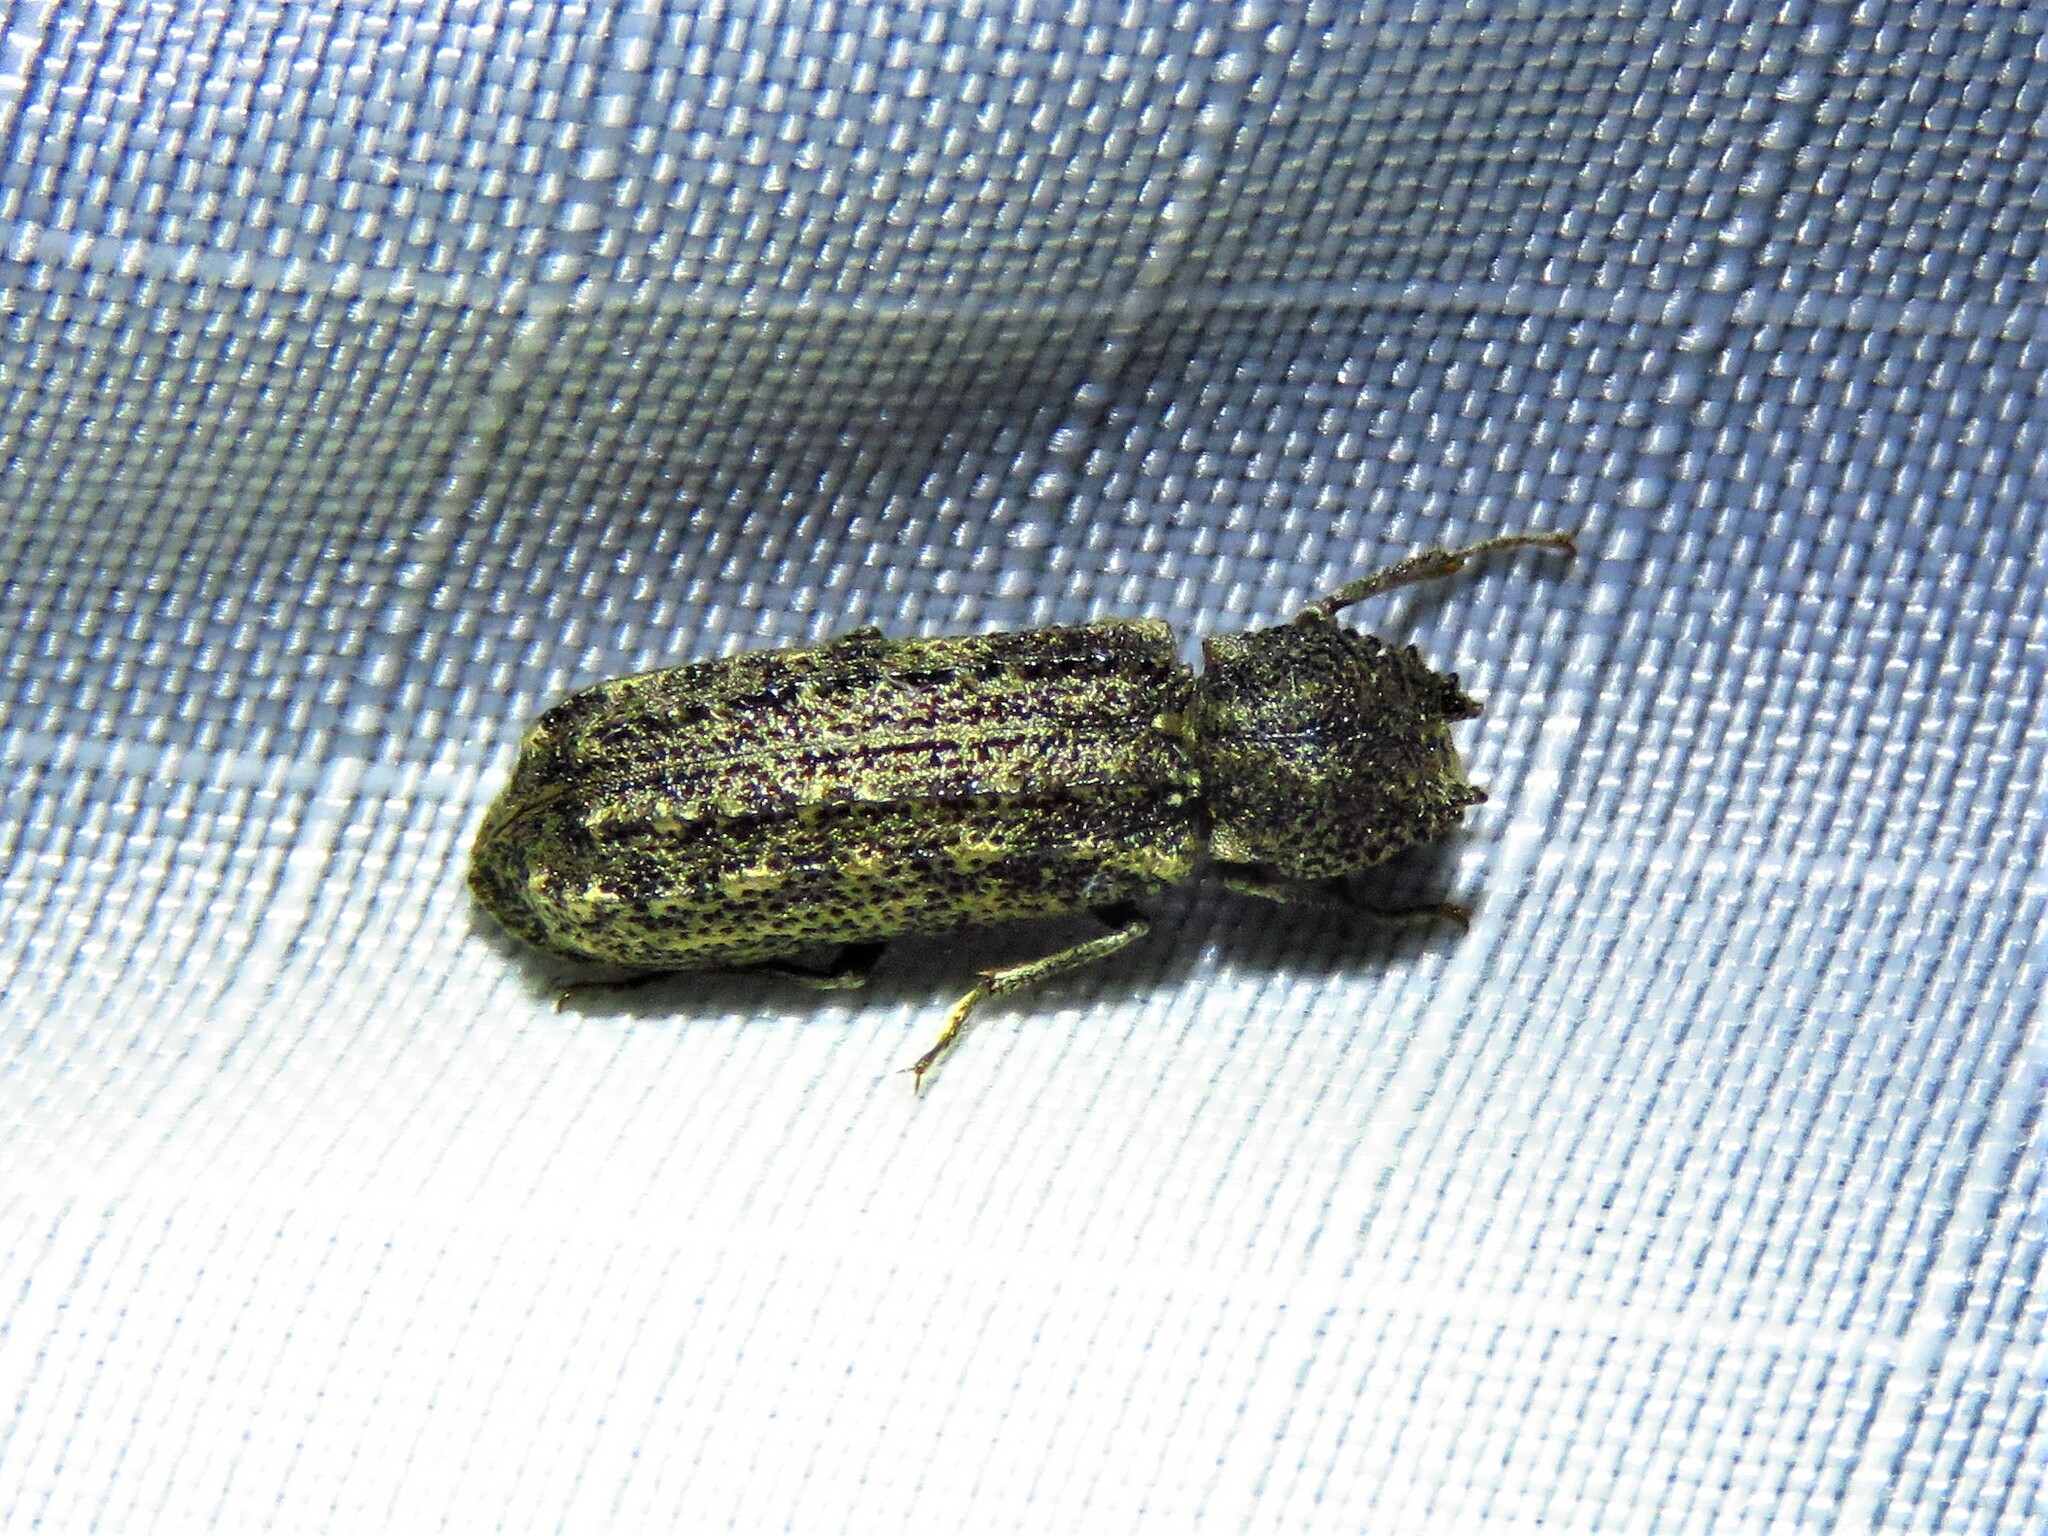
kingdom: Animalia
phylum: Arthropoda
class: Insecta
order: Coleoptera
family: Bostrichidae
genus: Lichenophanes
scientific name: Lichenophanes bicornis
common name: Two-horned powder-post beetle
